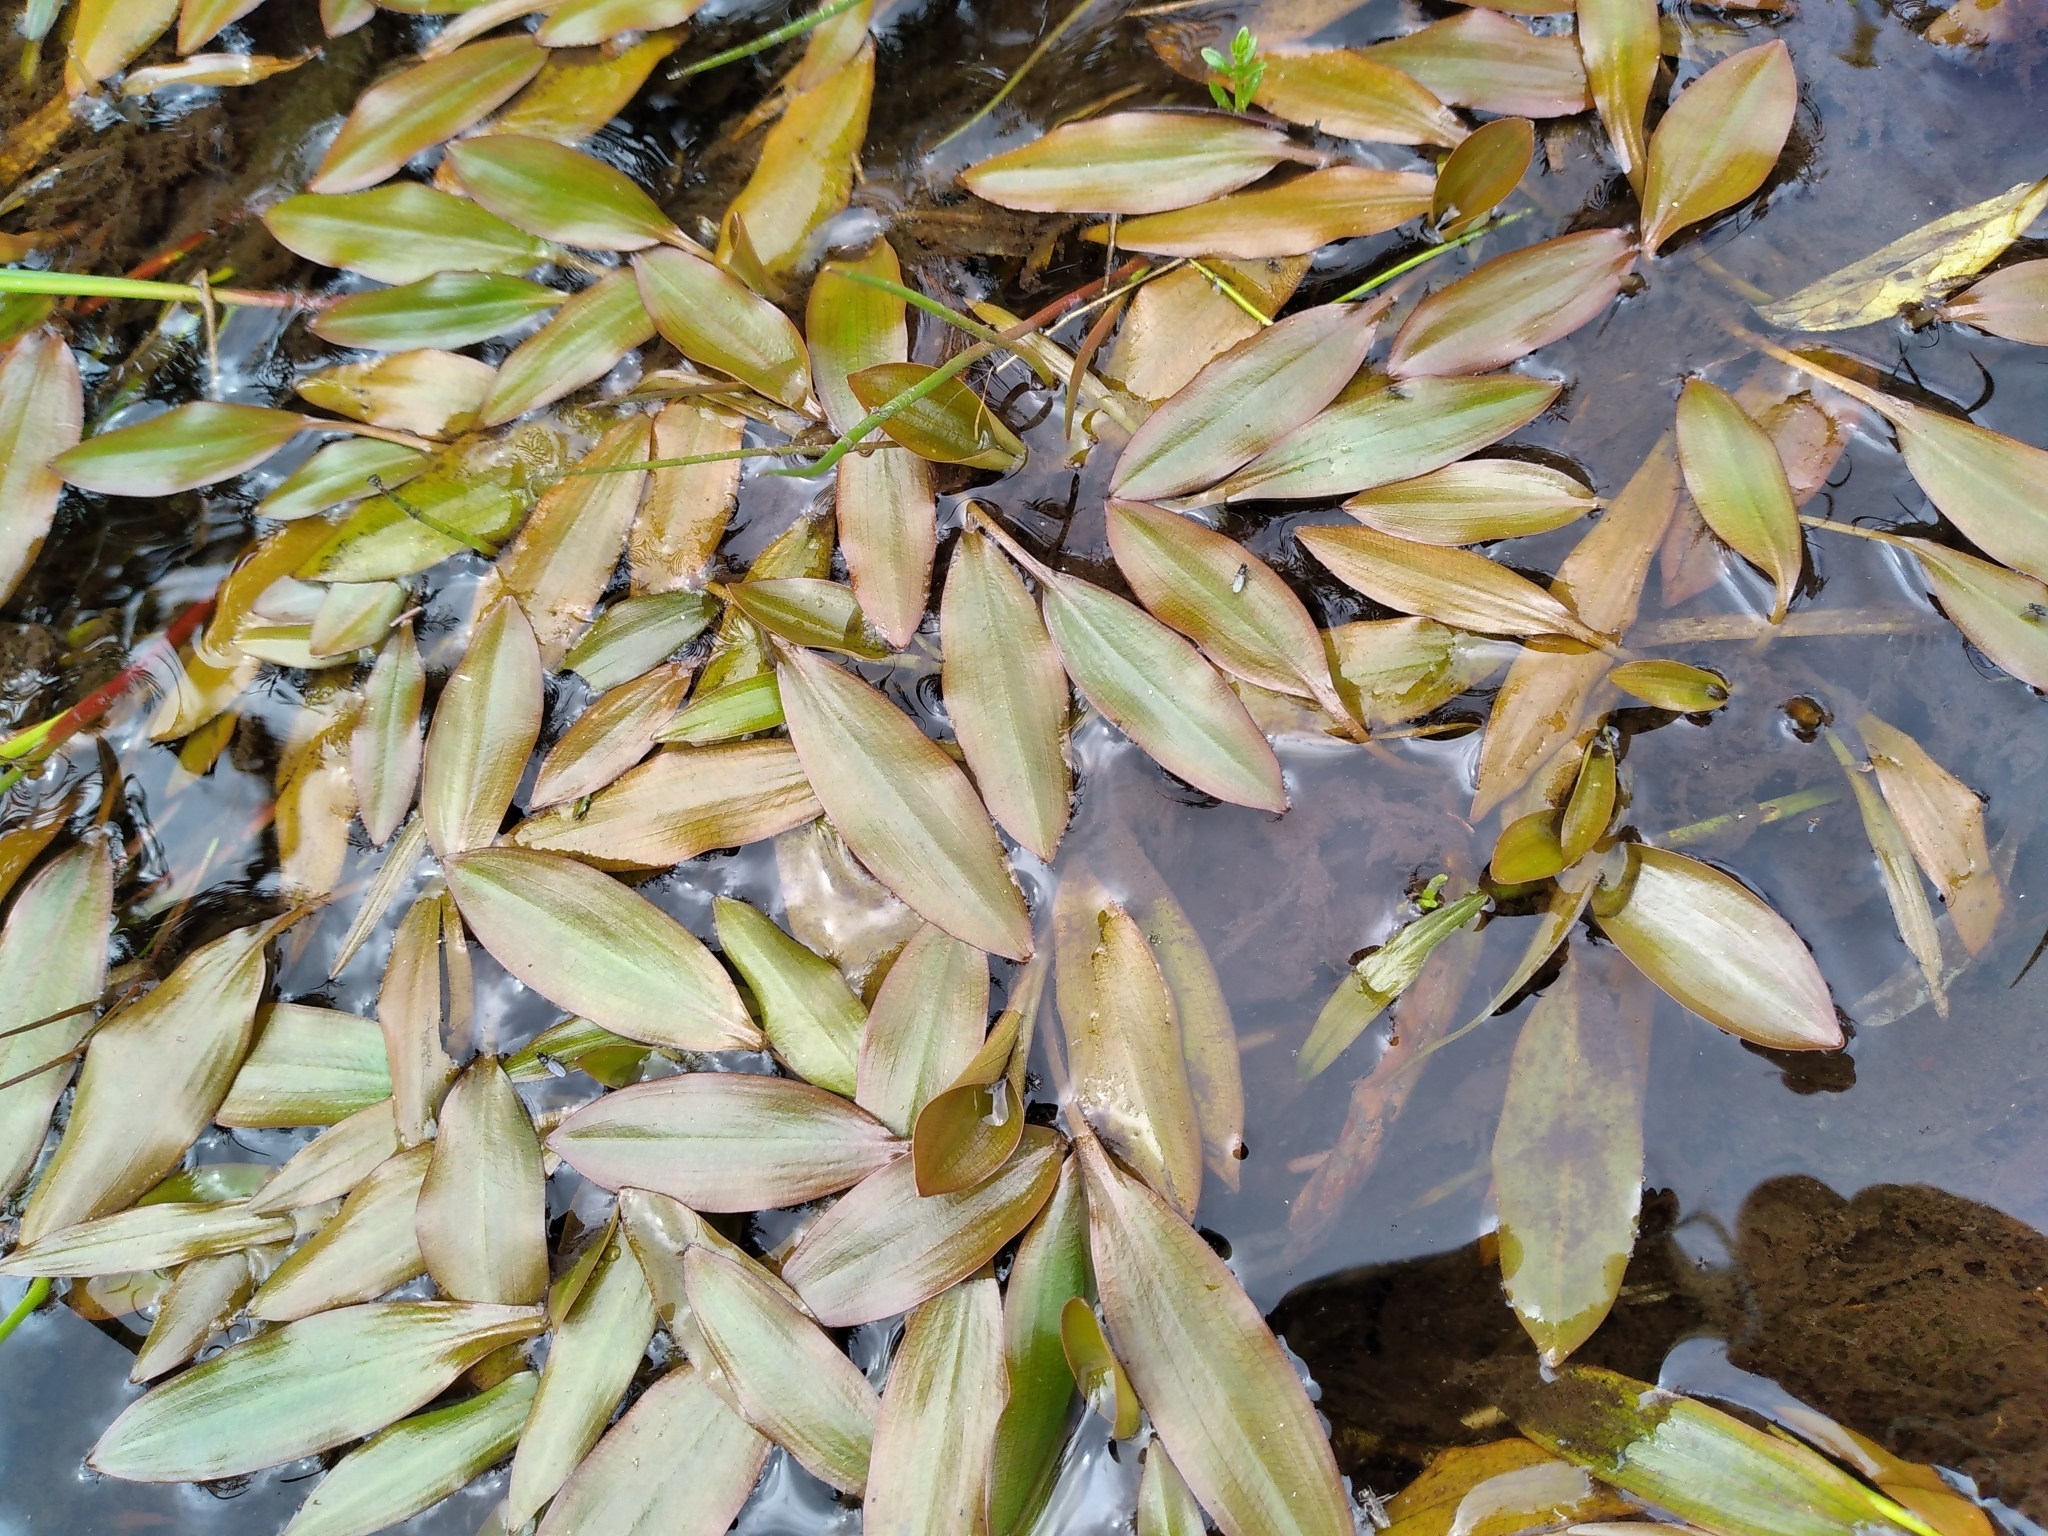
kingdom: Plantae
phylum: Tracheophyta
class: Liliopsida
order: Alismatales
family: Potamogetonaceae
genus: Potamogeton
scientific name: Potamogeton cheesemanii
